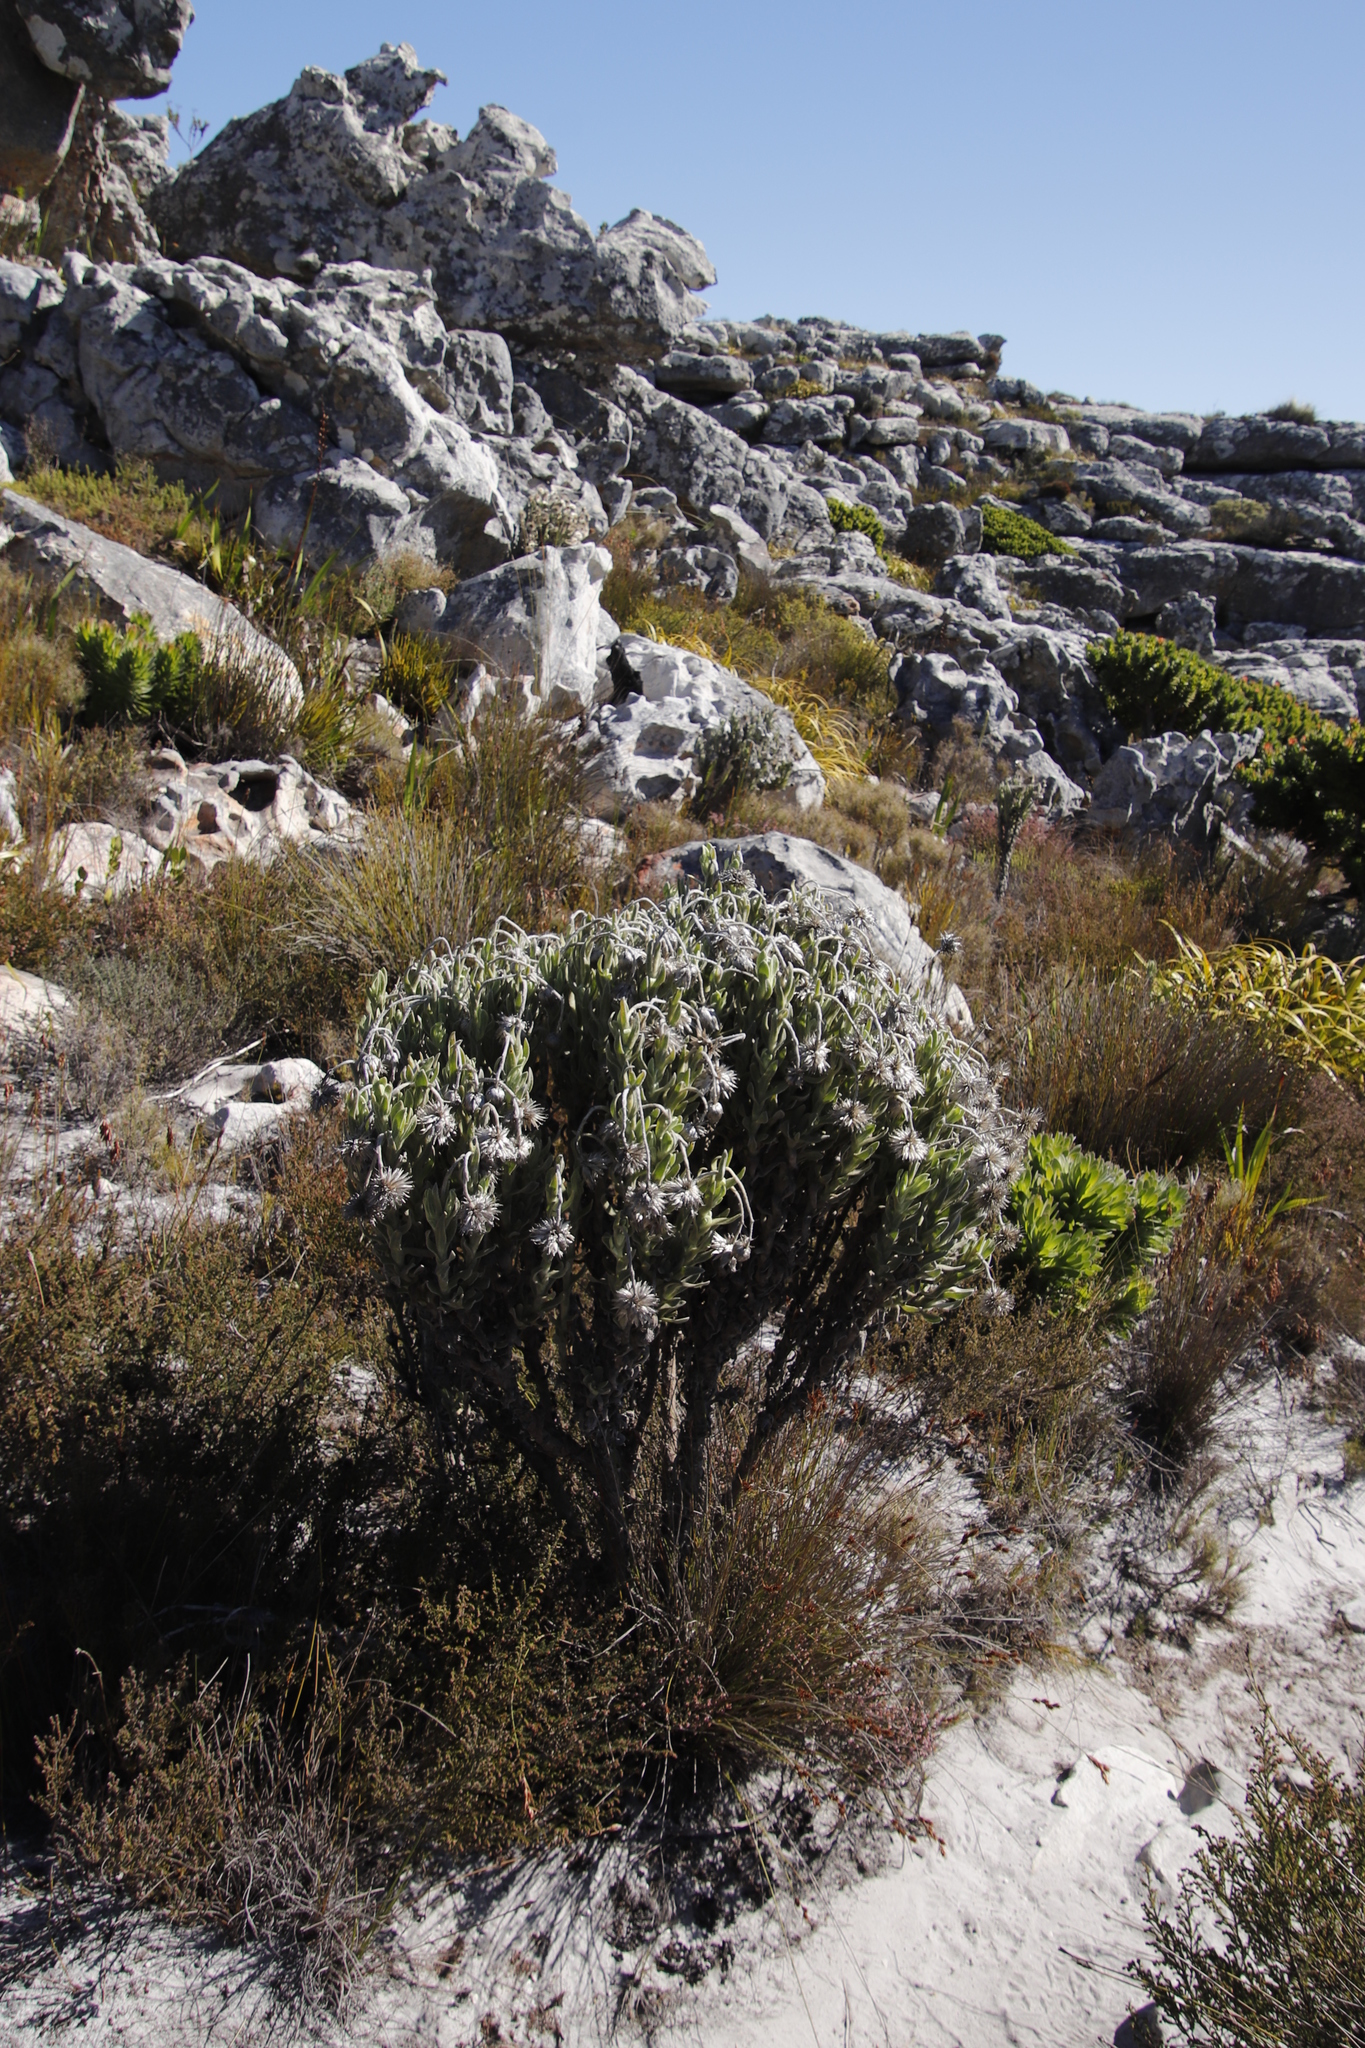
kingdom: Plantae
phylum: Tracheophyta
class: Magnoliopsida
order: Asterales
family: Asteraceae
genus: Syncarpha
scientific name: Syncarpha vestita
